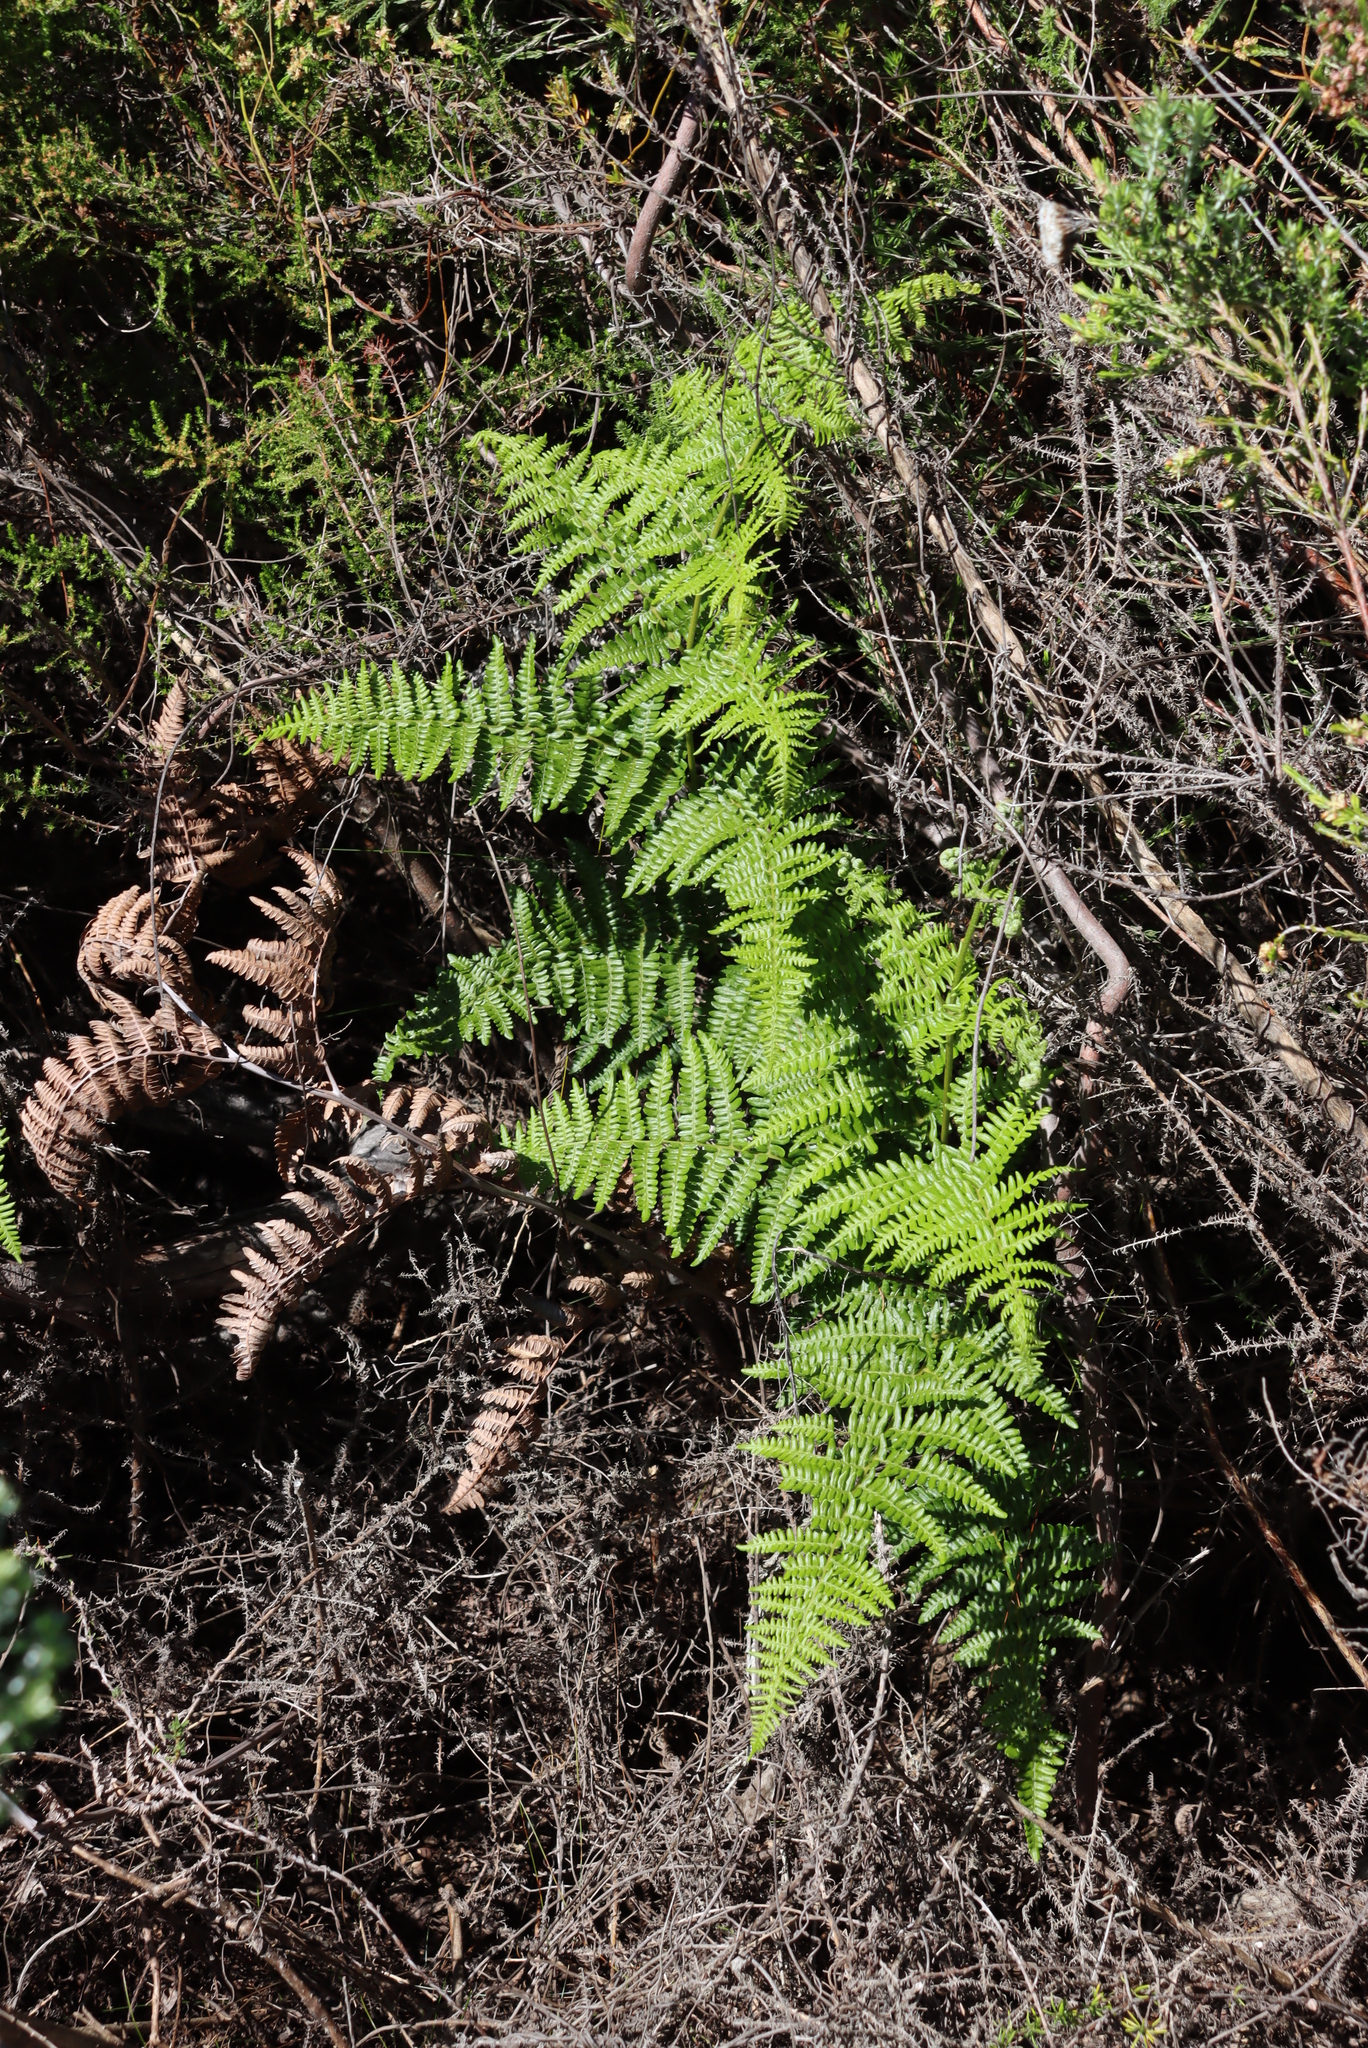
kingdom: Plantae
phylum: Tracheophyta
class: Polypodiopsida
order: Polypodiales
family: Dennstaedtiaceae
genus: Pteridium
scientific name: Pteridium aquilinum
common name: Bracken
